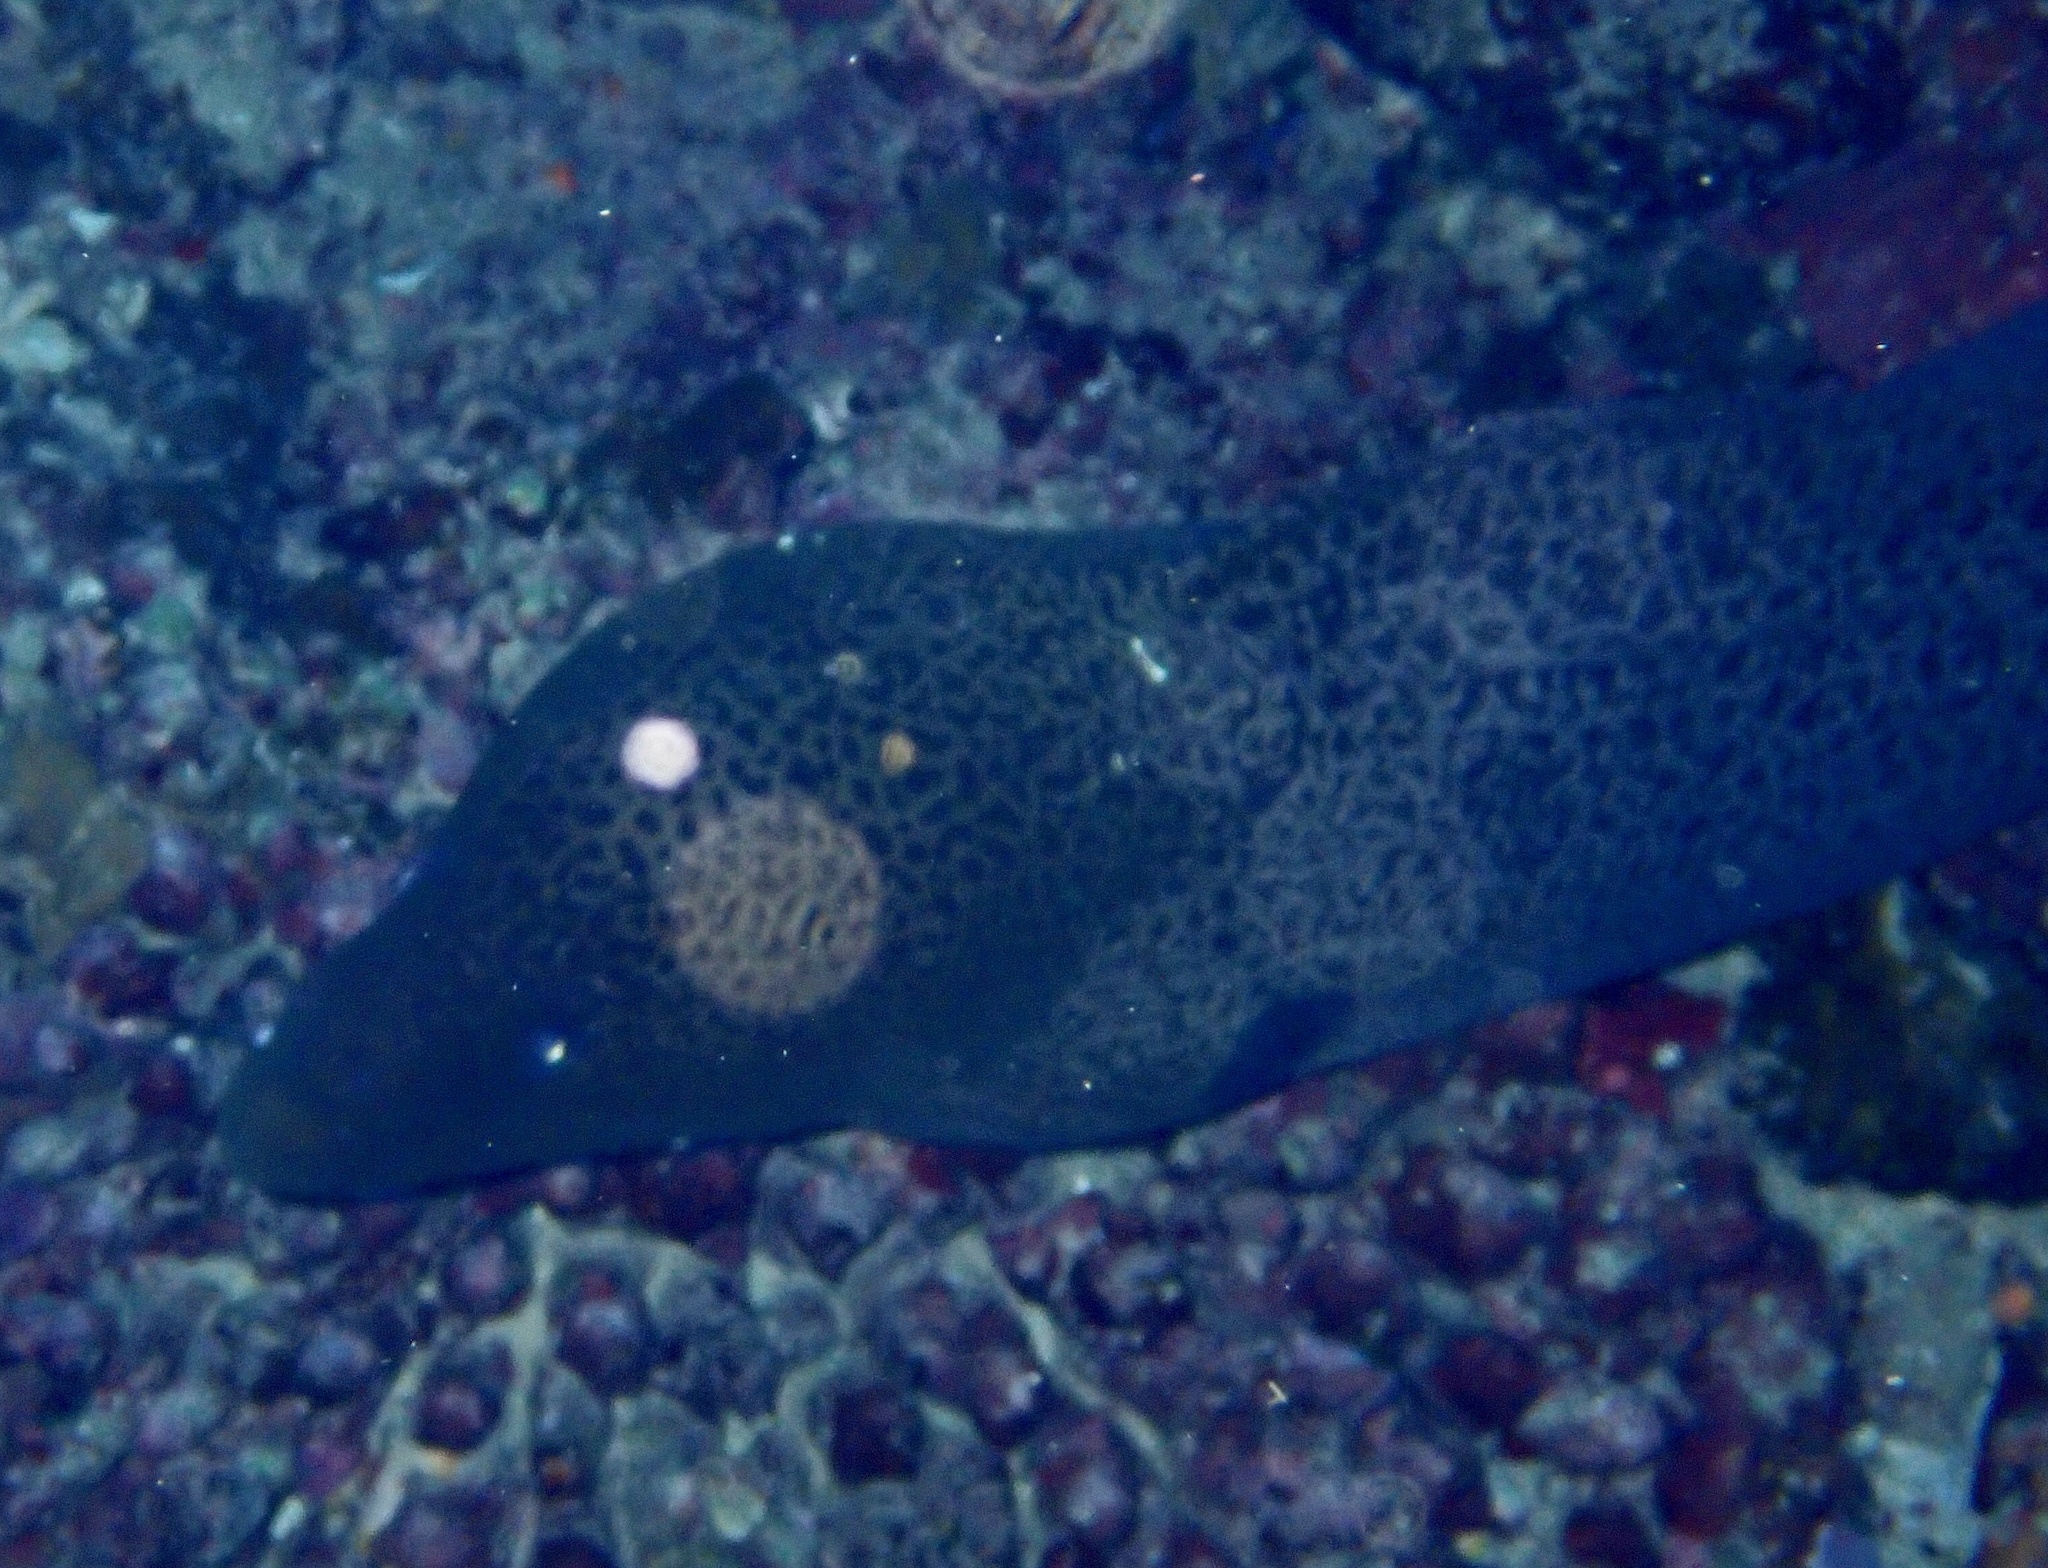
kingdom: Animalia
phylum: Chordata
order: Anguilliformes
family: Muraenidae
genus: Gymnothorax
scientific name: Gymnothorax javanicus
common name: Giant moray
